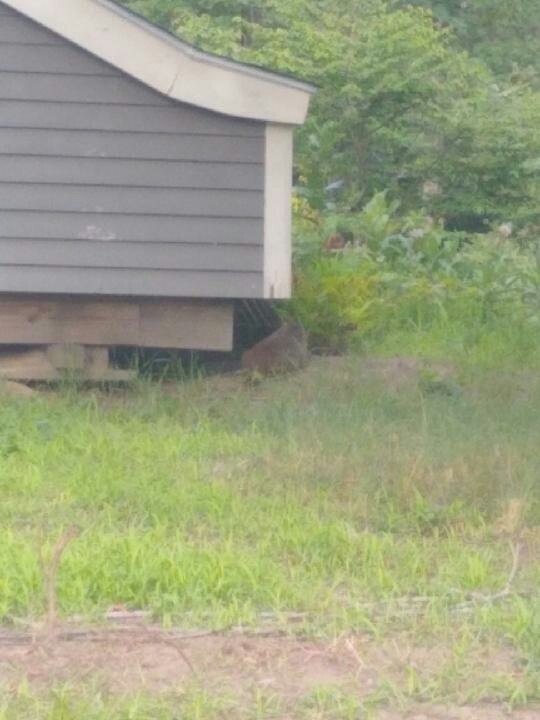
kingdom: Animalia
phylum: Chordata
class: Mammalia
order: Rodentia
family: Sciuridae
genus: Marmota
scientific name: Marmota monax
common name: Groundhog
